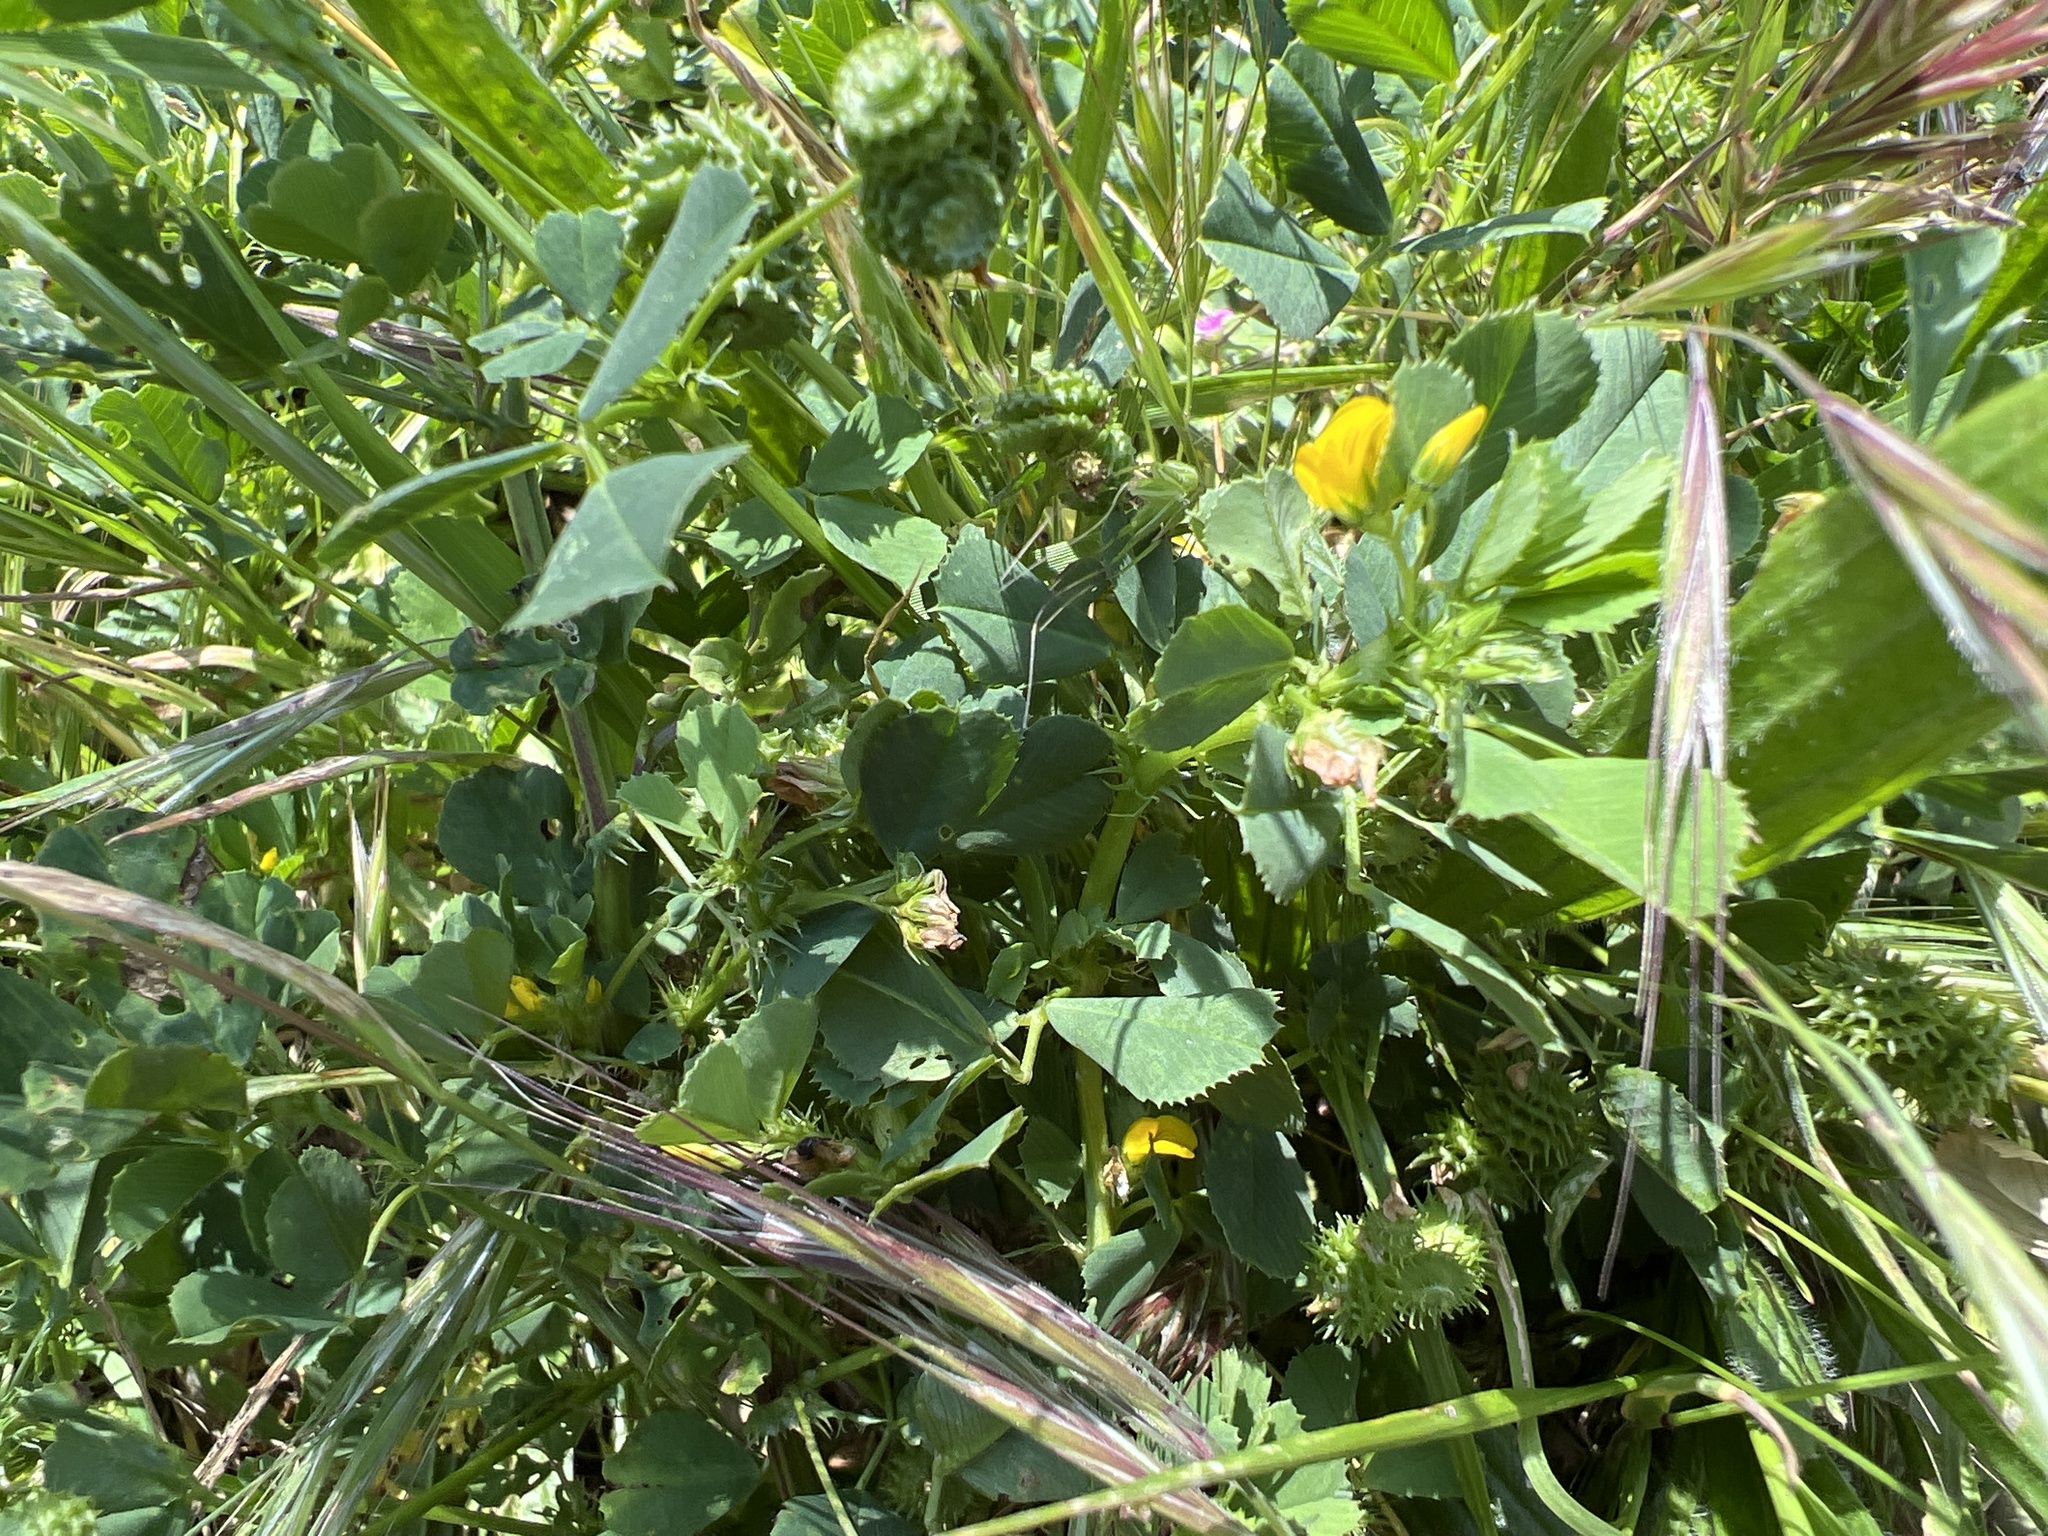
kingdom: Plantae
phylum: Tracheophyta
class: Magnoliopsida
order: Fabales
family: Fabaceae
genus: Medicago
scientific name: Medicago polymorpha
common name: Burclover
